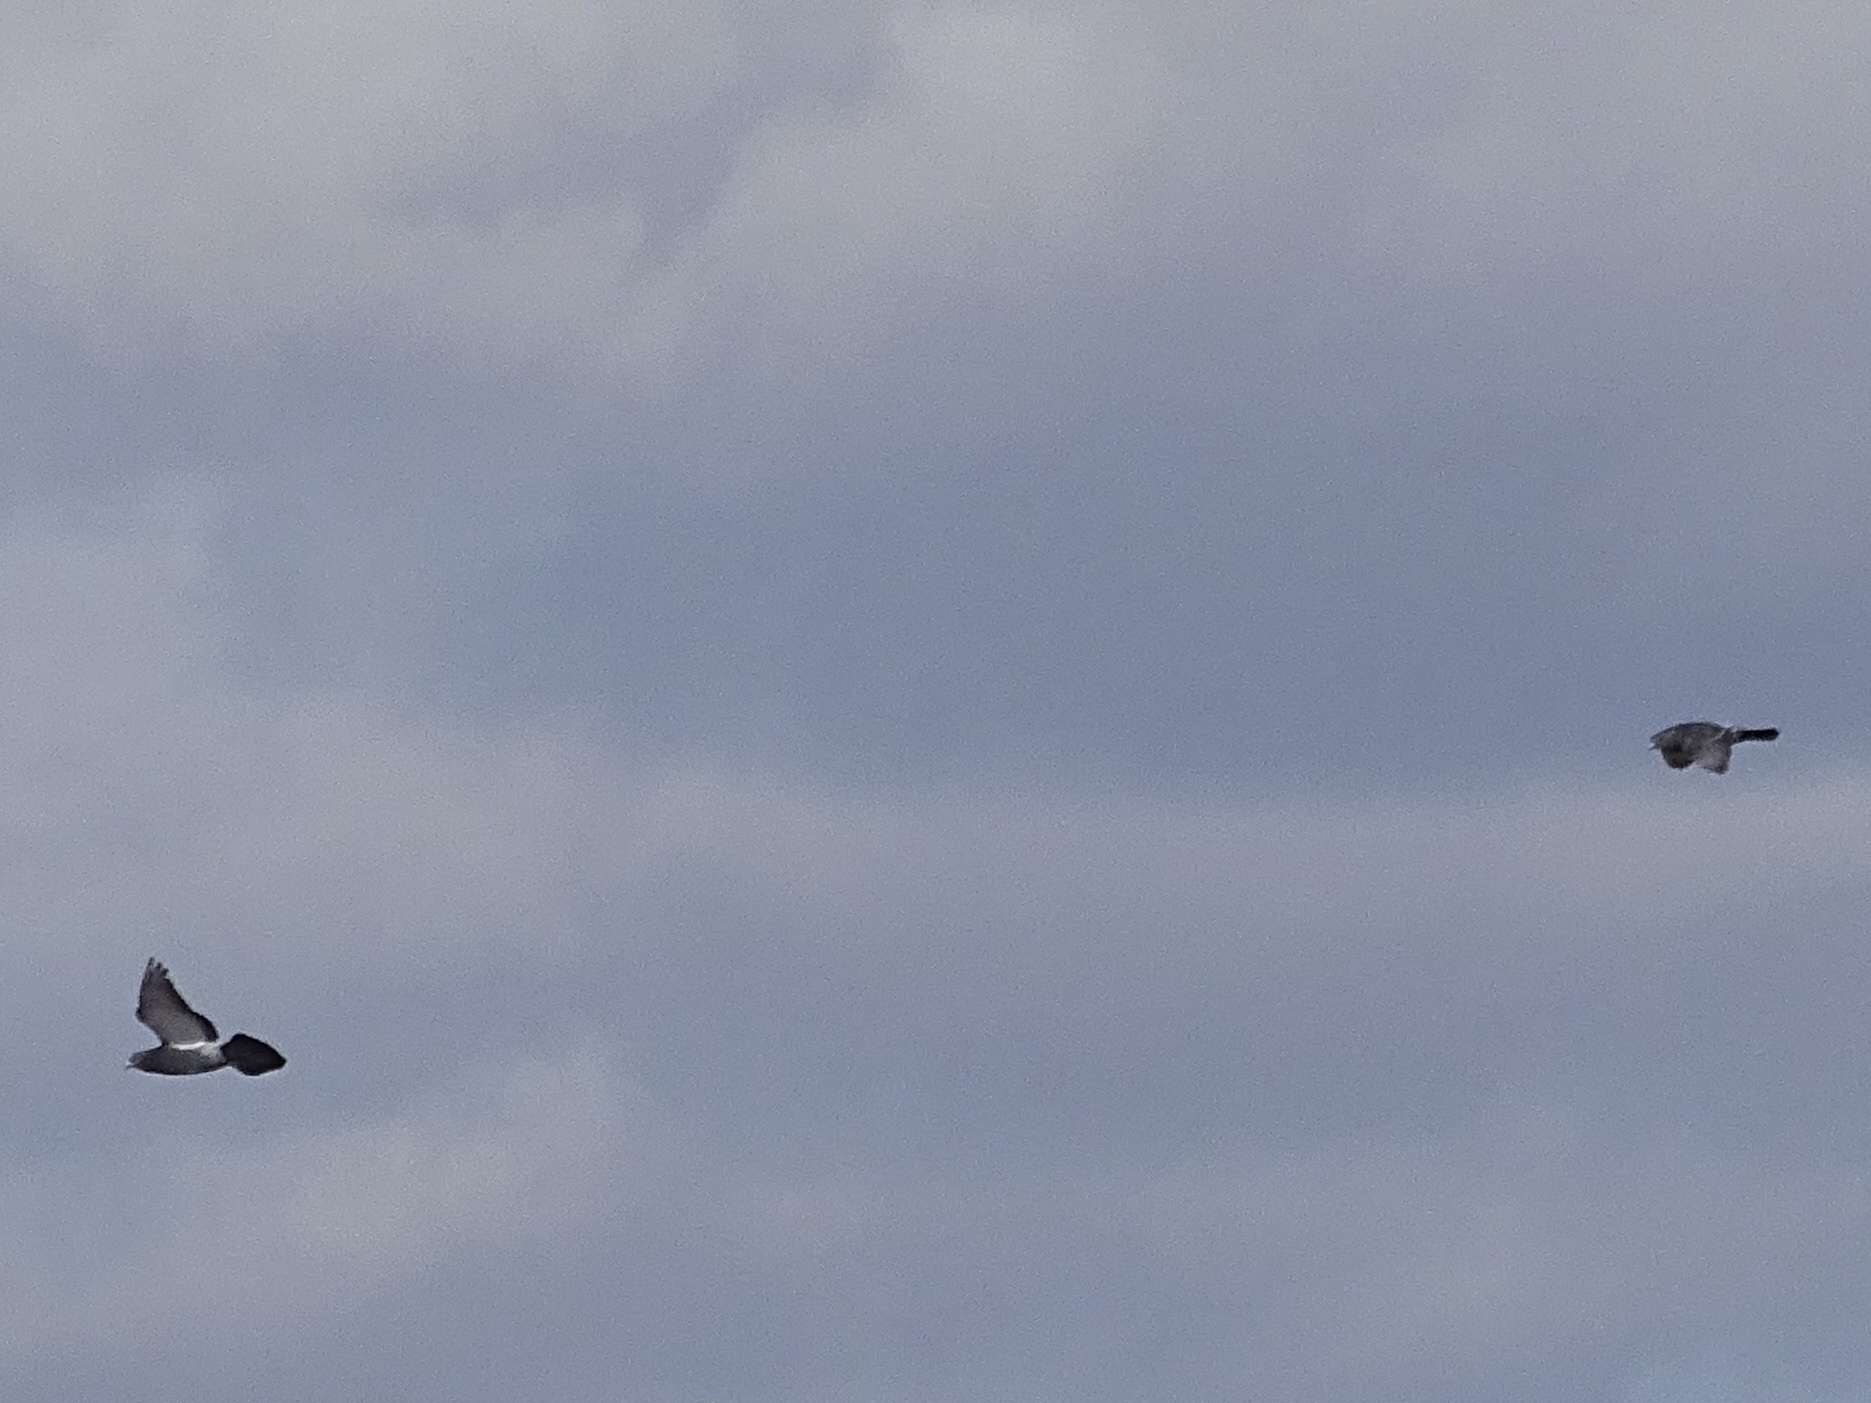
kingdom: Animalia
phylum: Chordata
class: Aves
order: Columbiformes
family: Columbidae
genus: Columba
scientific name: Columba livia
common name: Rock pigeon
